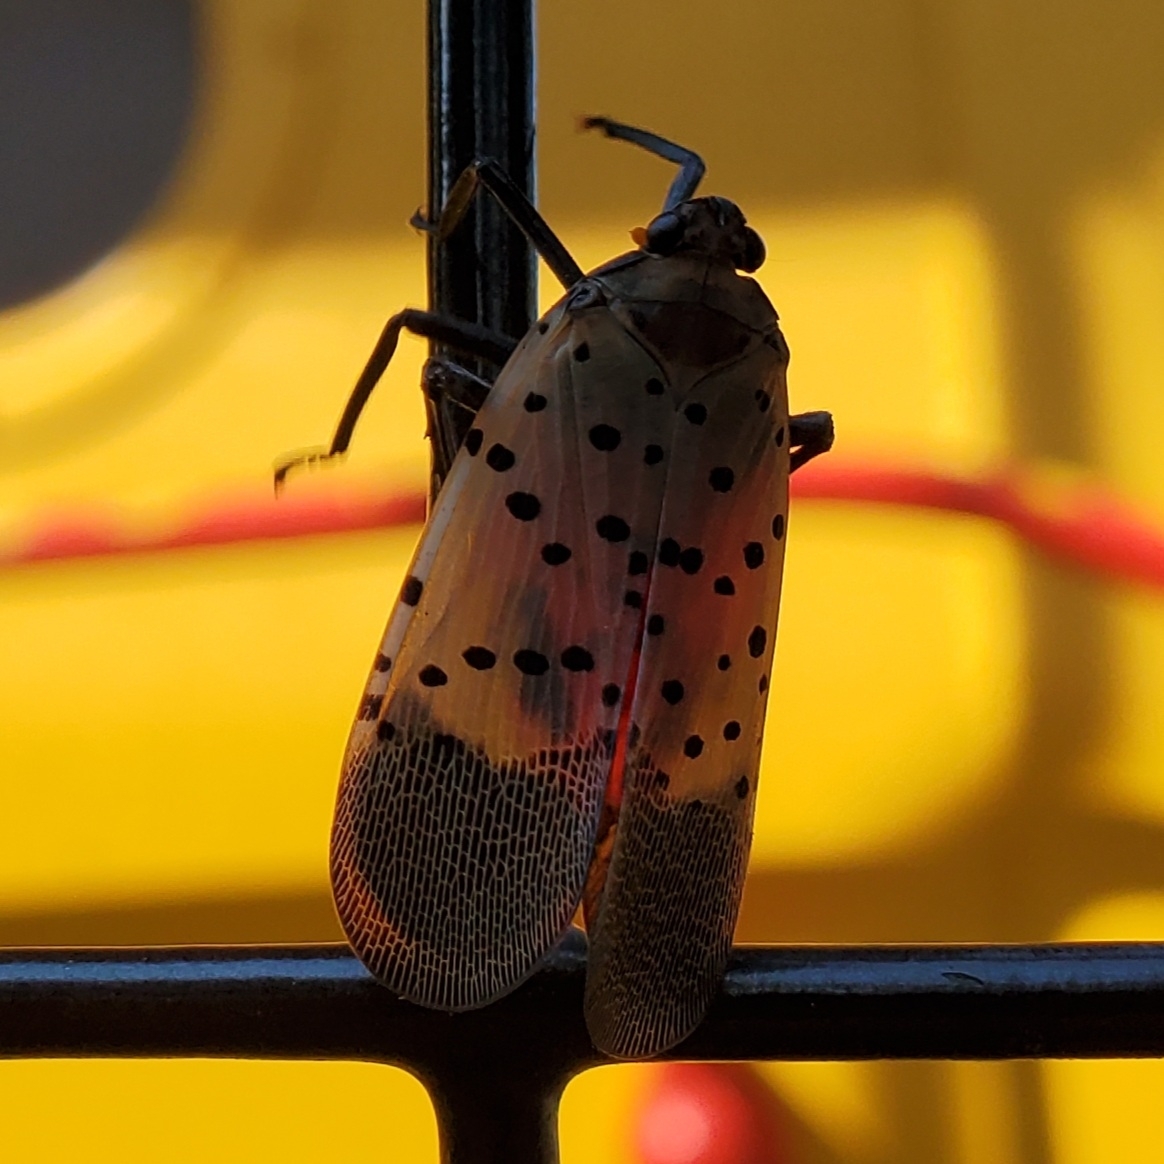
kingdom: Animalia
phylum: Arthropoda
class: Insecta
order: Hemiptera
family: Fulgoridae
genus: Lycorma
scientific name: Lycorma delicatula
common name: Spotted lanternfly
